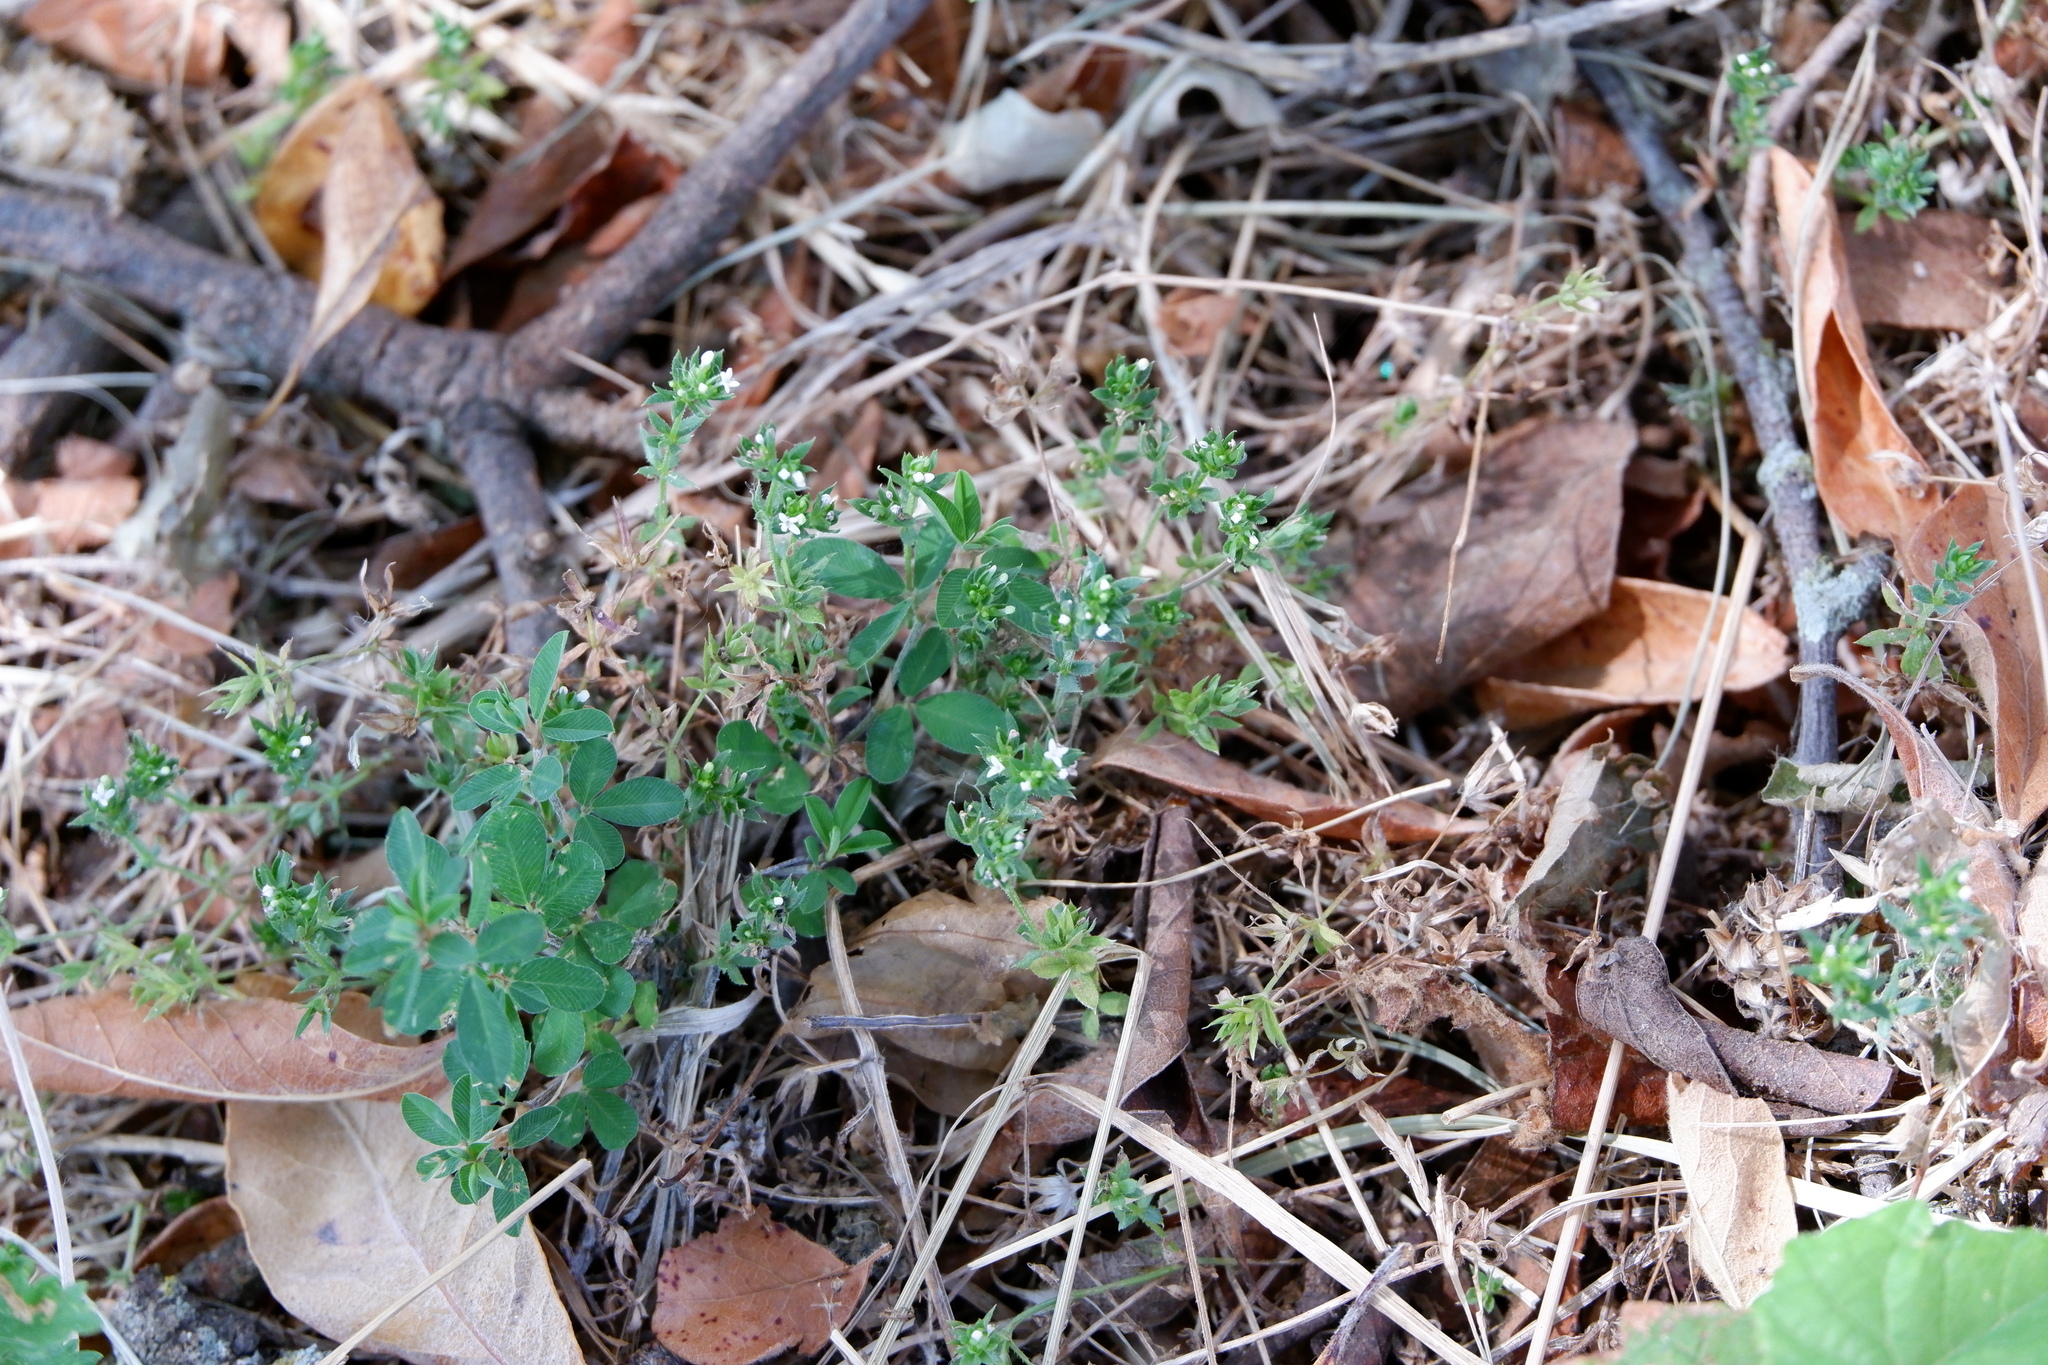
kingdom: Plantae
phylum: Tracheophyta
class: Magnoliopsida
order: Gentianales
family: Rubiaceae
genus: Sherardia
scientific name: Sherardia arvensis
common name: Field madder
